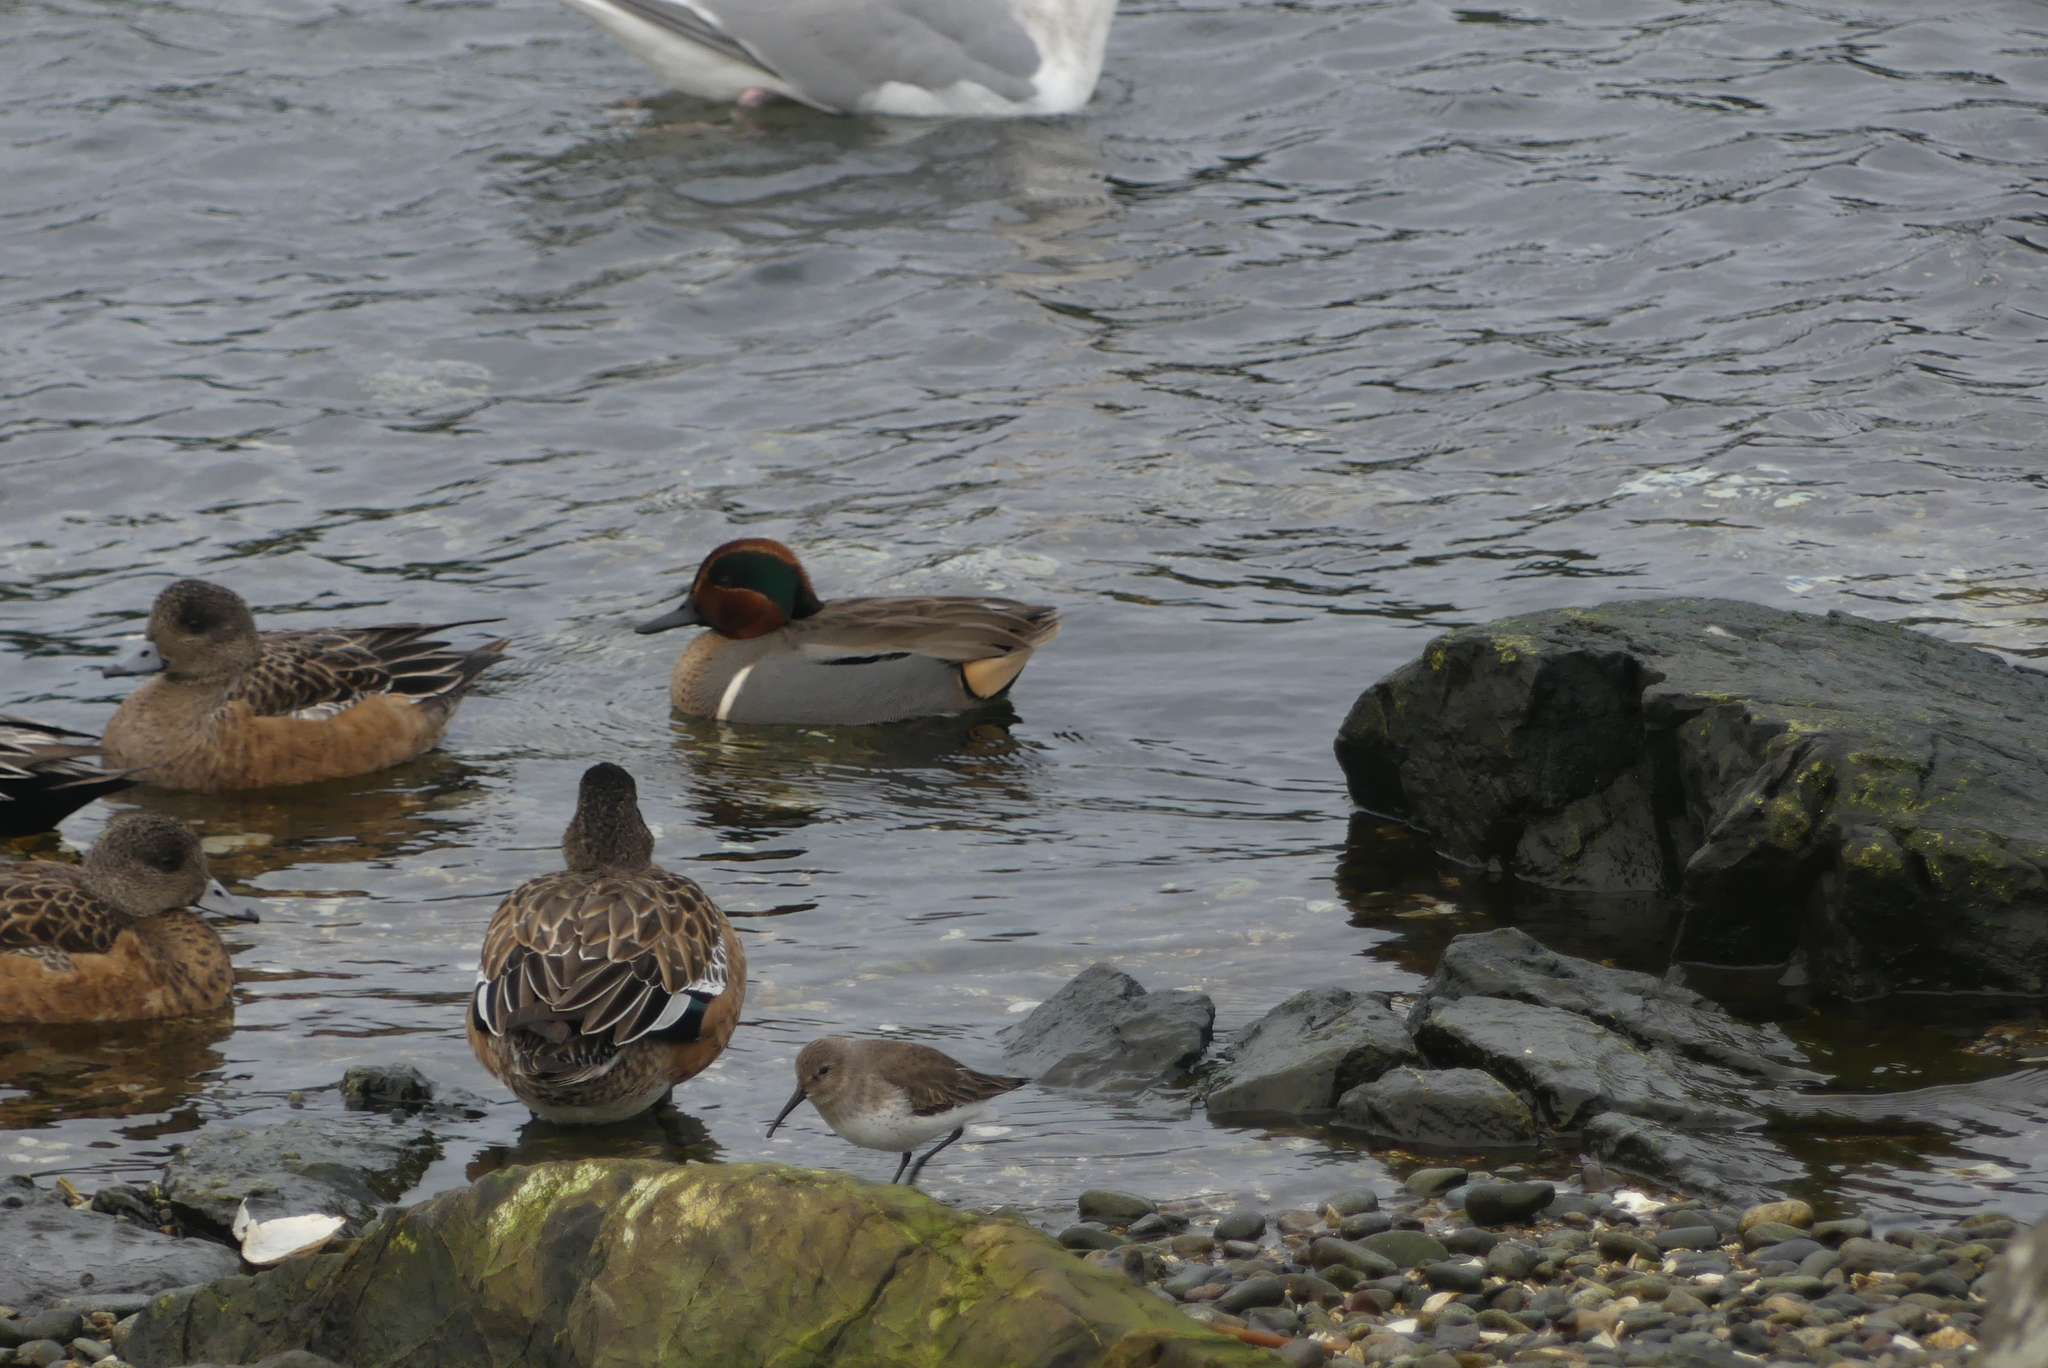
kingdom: Animalia
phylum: Chordata
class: Aves
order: Anseriformes
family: Anatidae
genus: Anas
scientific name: Anas crecca
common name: Eurasian teal
